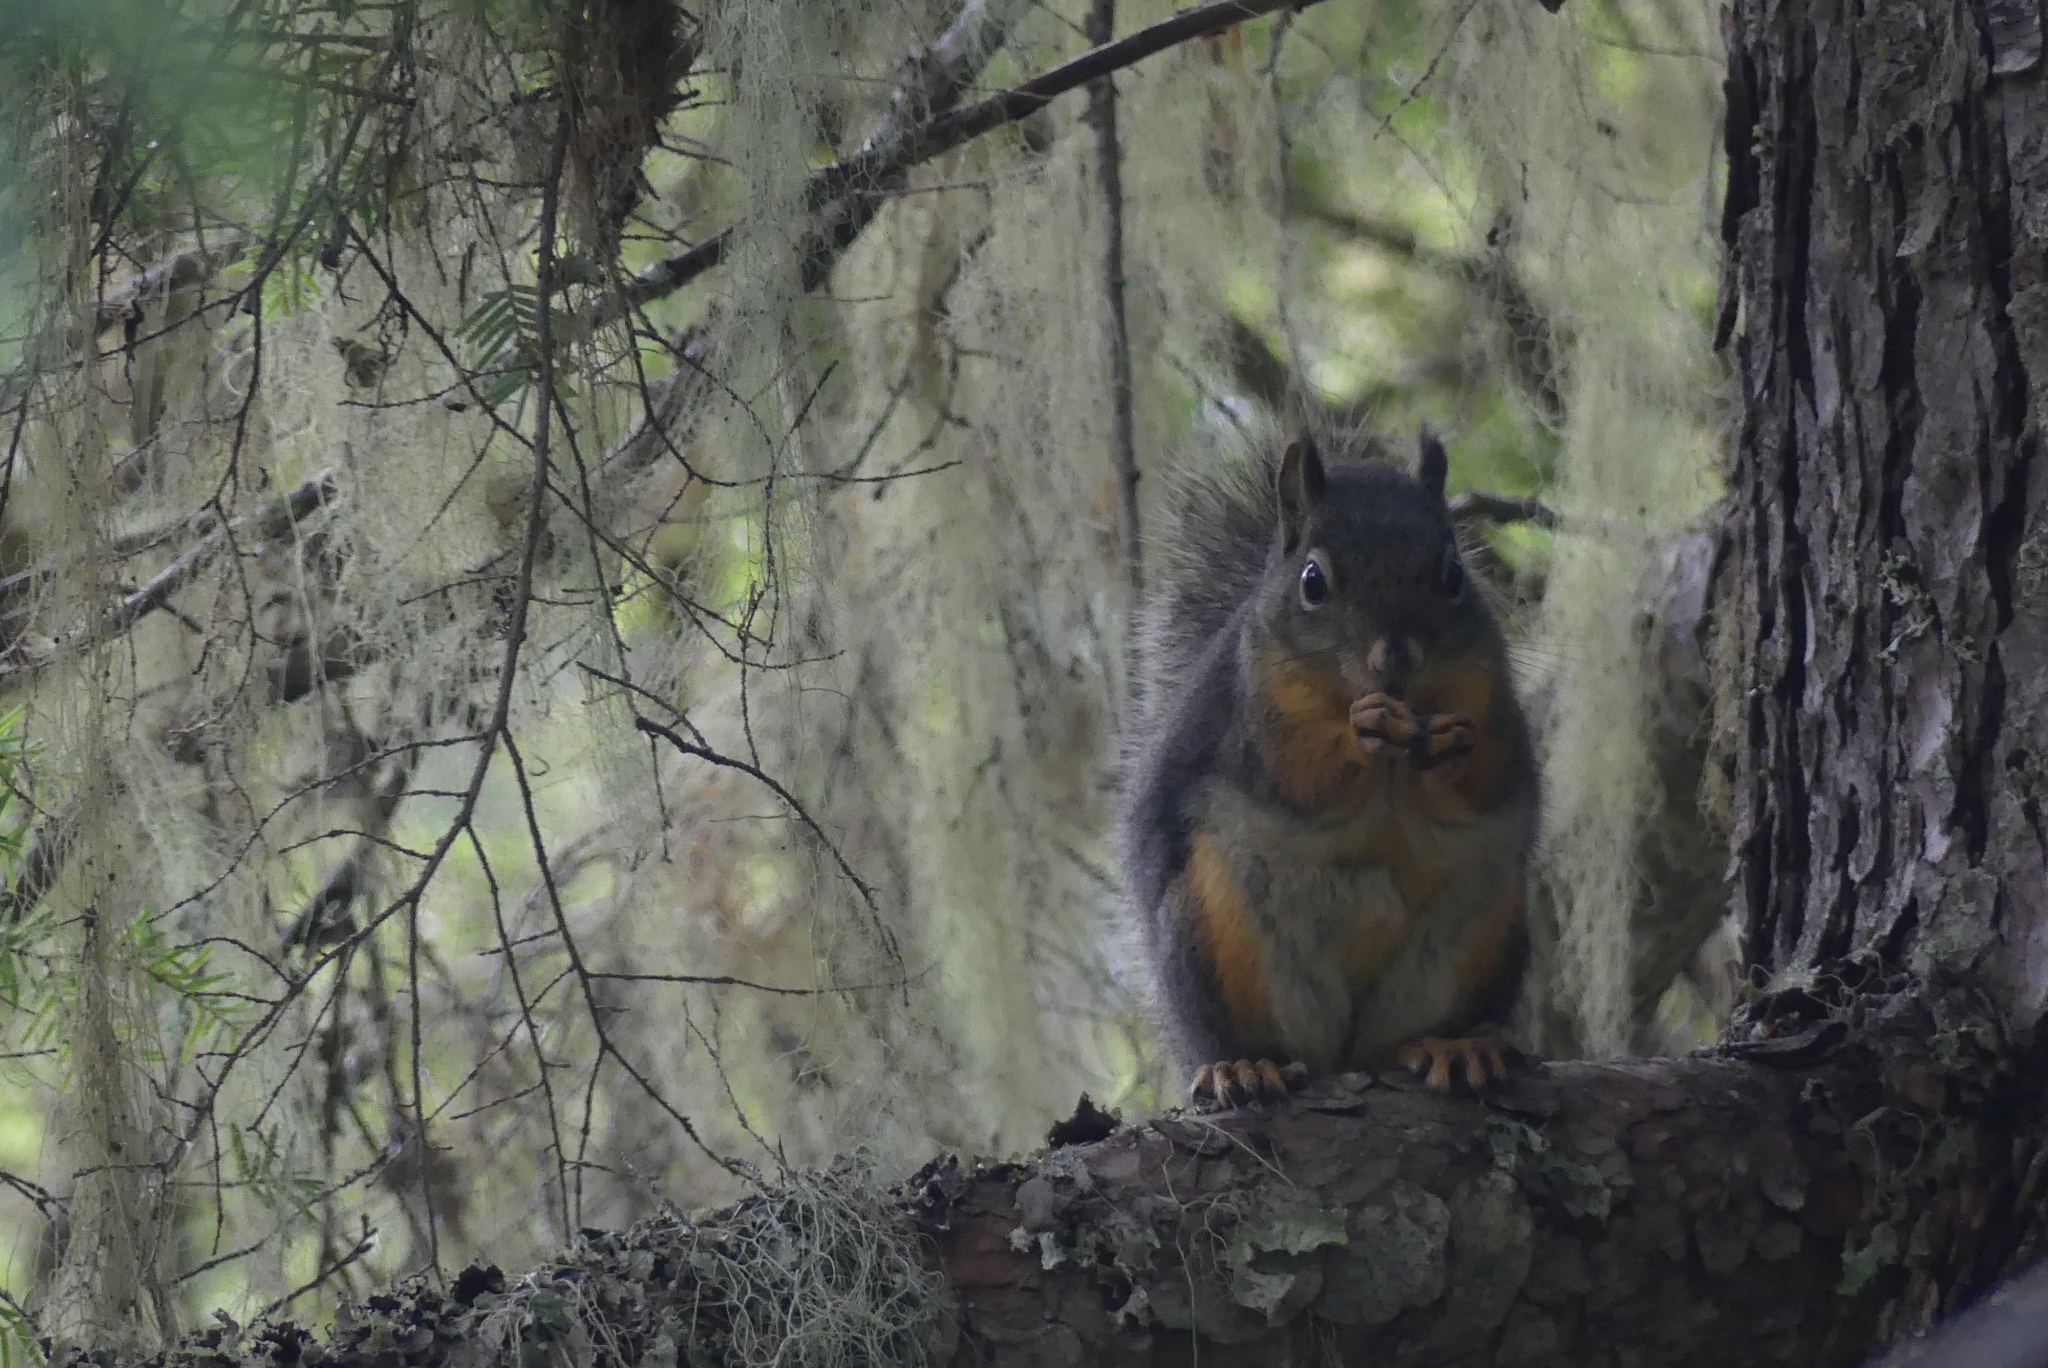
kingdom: Animalia
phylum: Chordata
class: Mammalia
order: Rodentia
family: Sciuridae
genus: Tamiasciurus
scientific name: Tamiasciurus douglasii
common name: Douglas's squirrel
